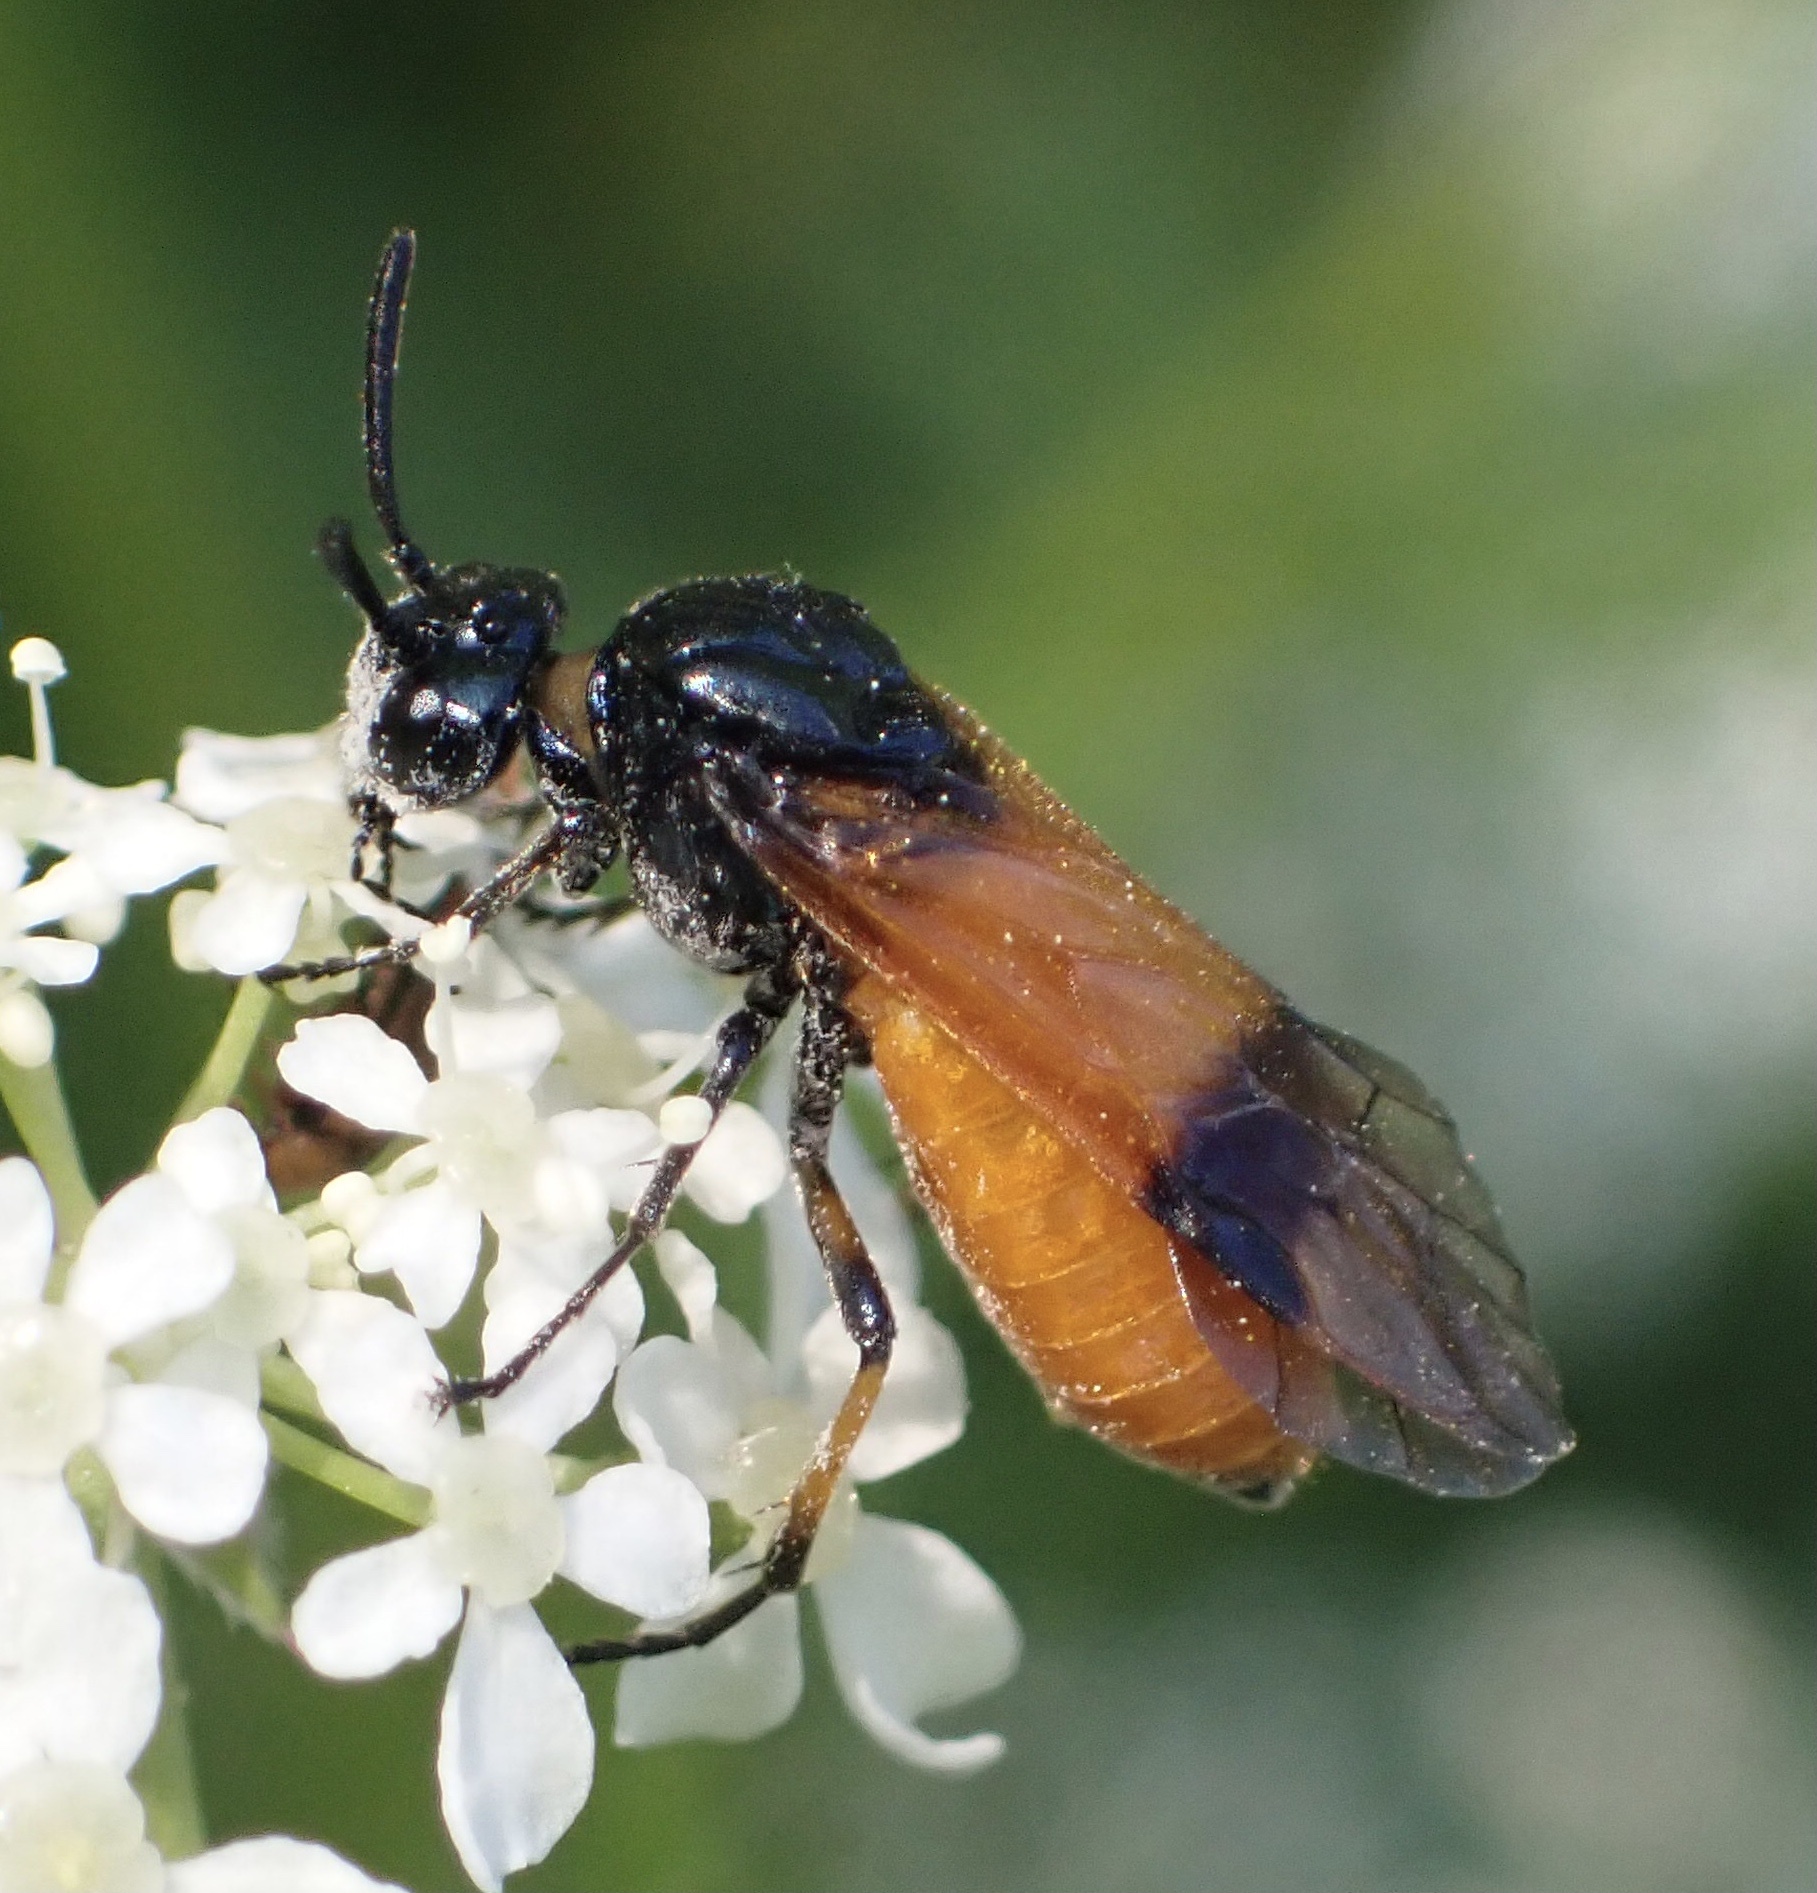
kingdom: Animalia
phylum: Arthropoda
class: Insecta
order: Hymenoptera
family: Argidae
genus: Arge
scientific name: Arge cyanocrocea
